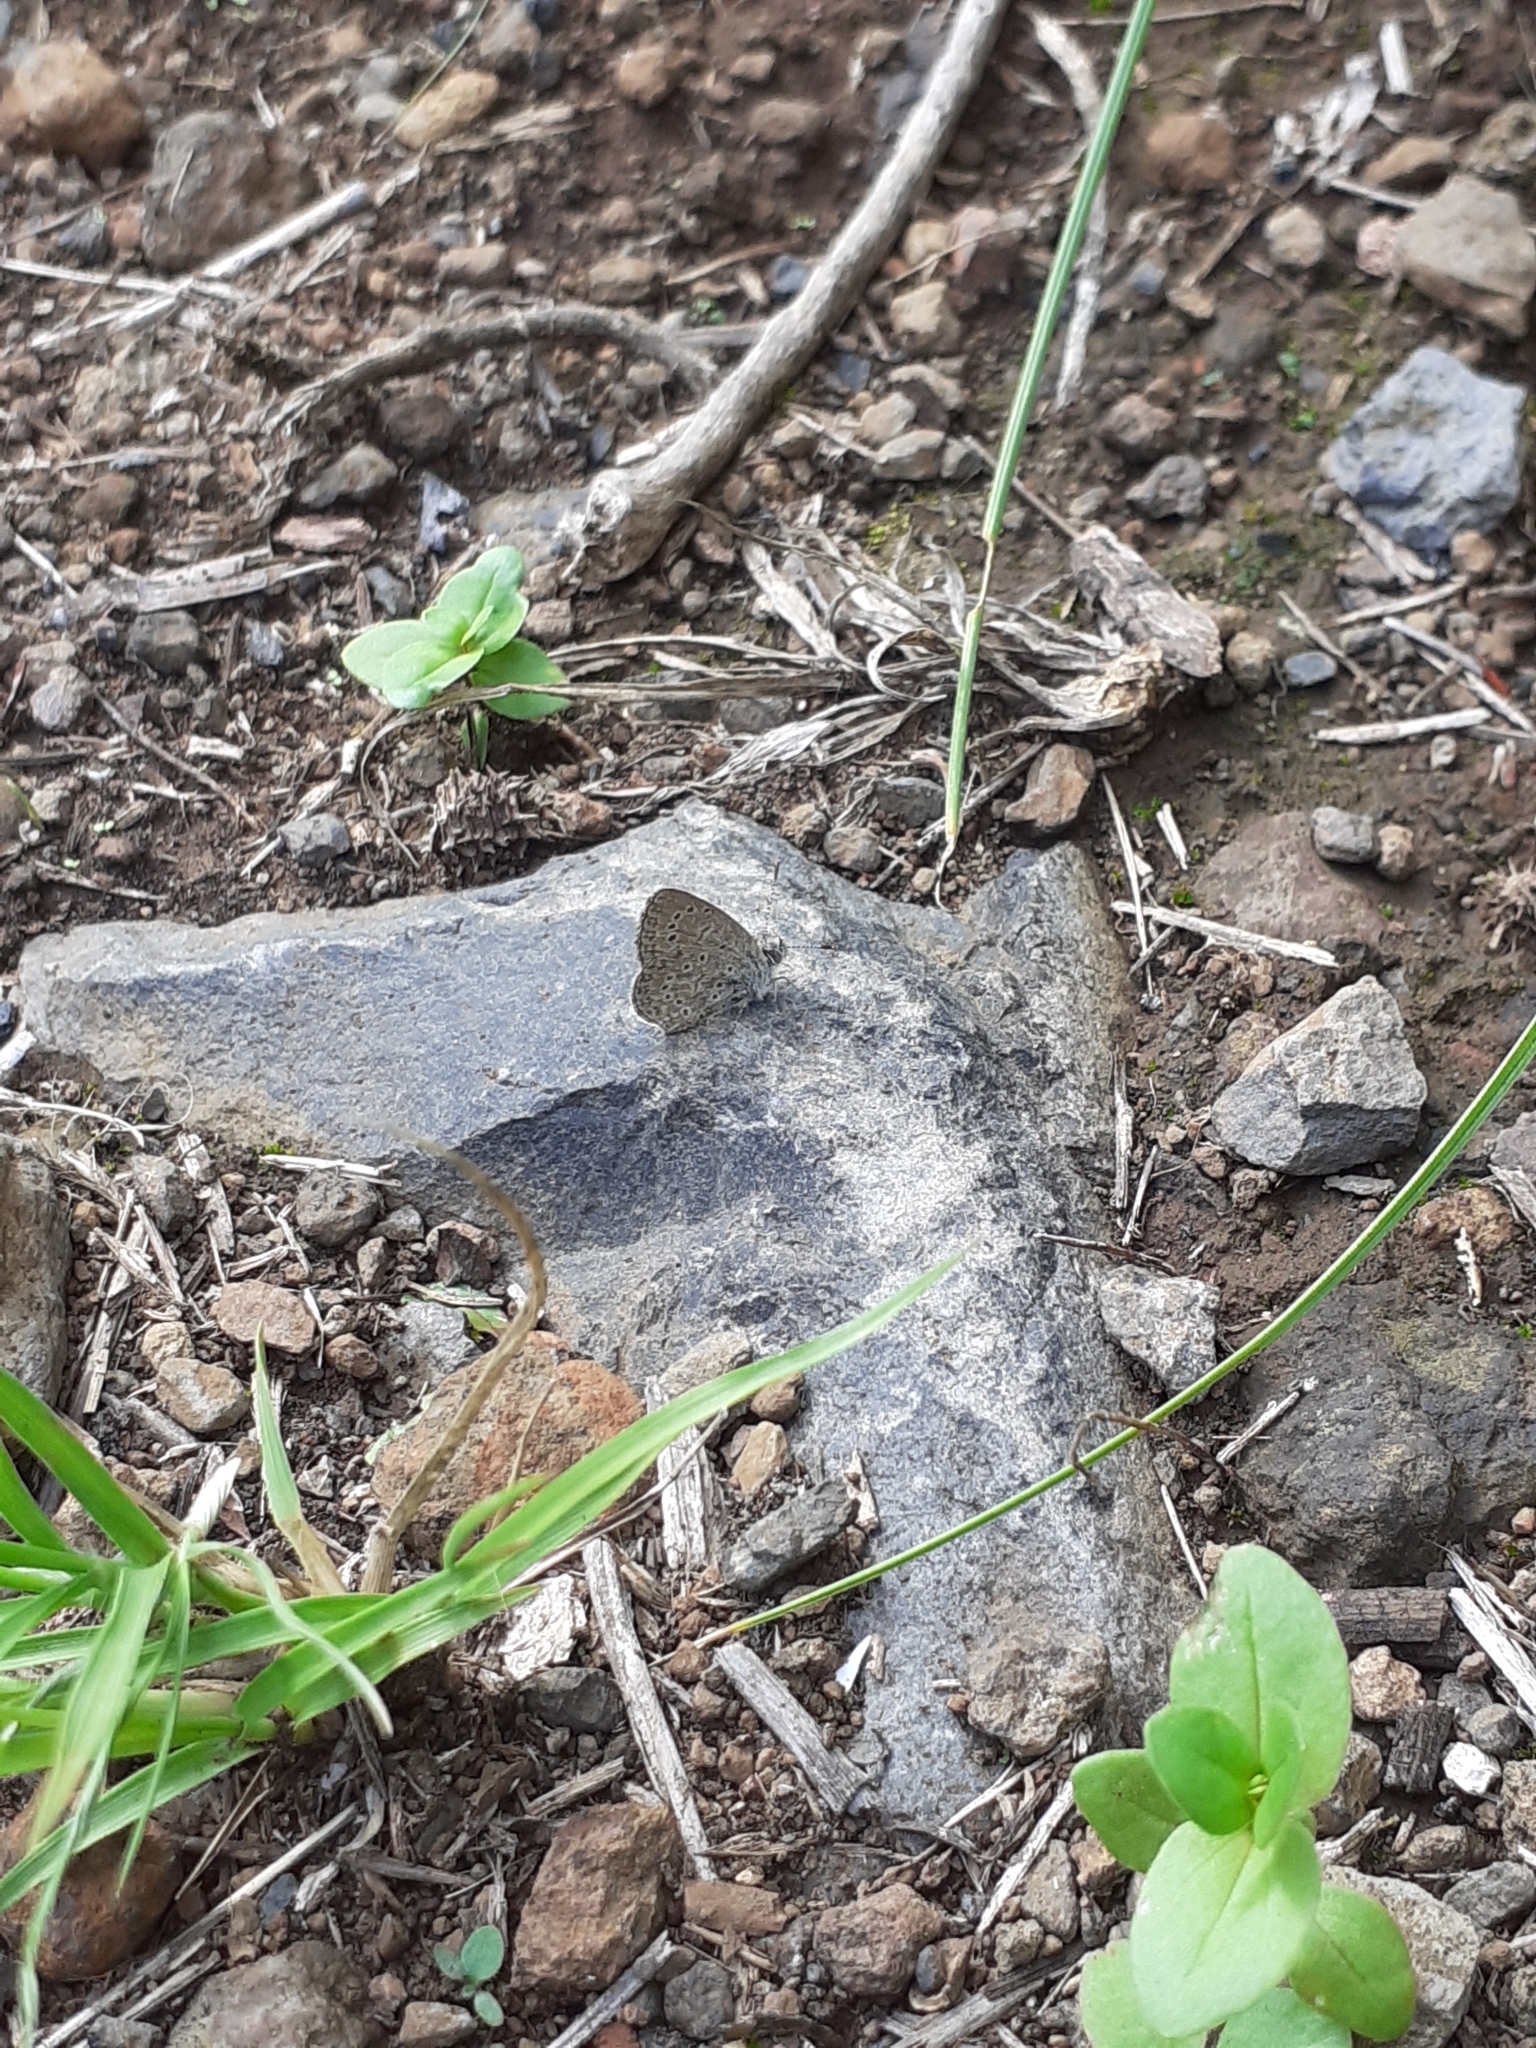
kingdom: Animalia
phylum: Arthropoda
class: Insecta
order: Lepidoptera
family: Lycaenidae
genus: Zizeeria
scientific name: Zizeeria knysna
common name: African grass blue
